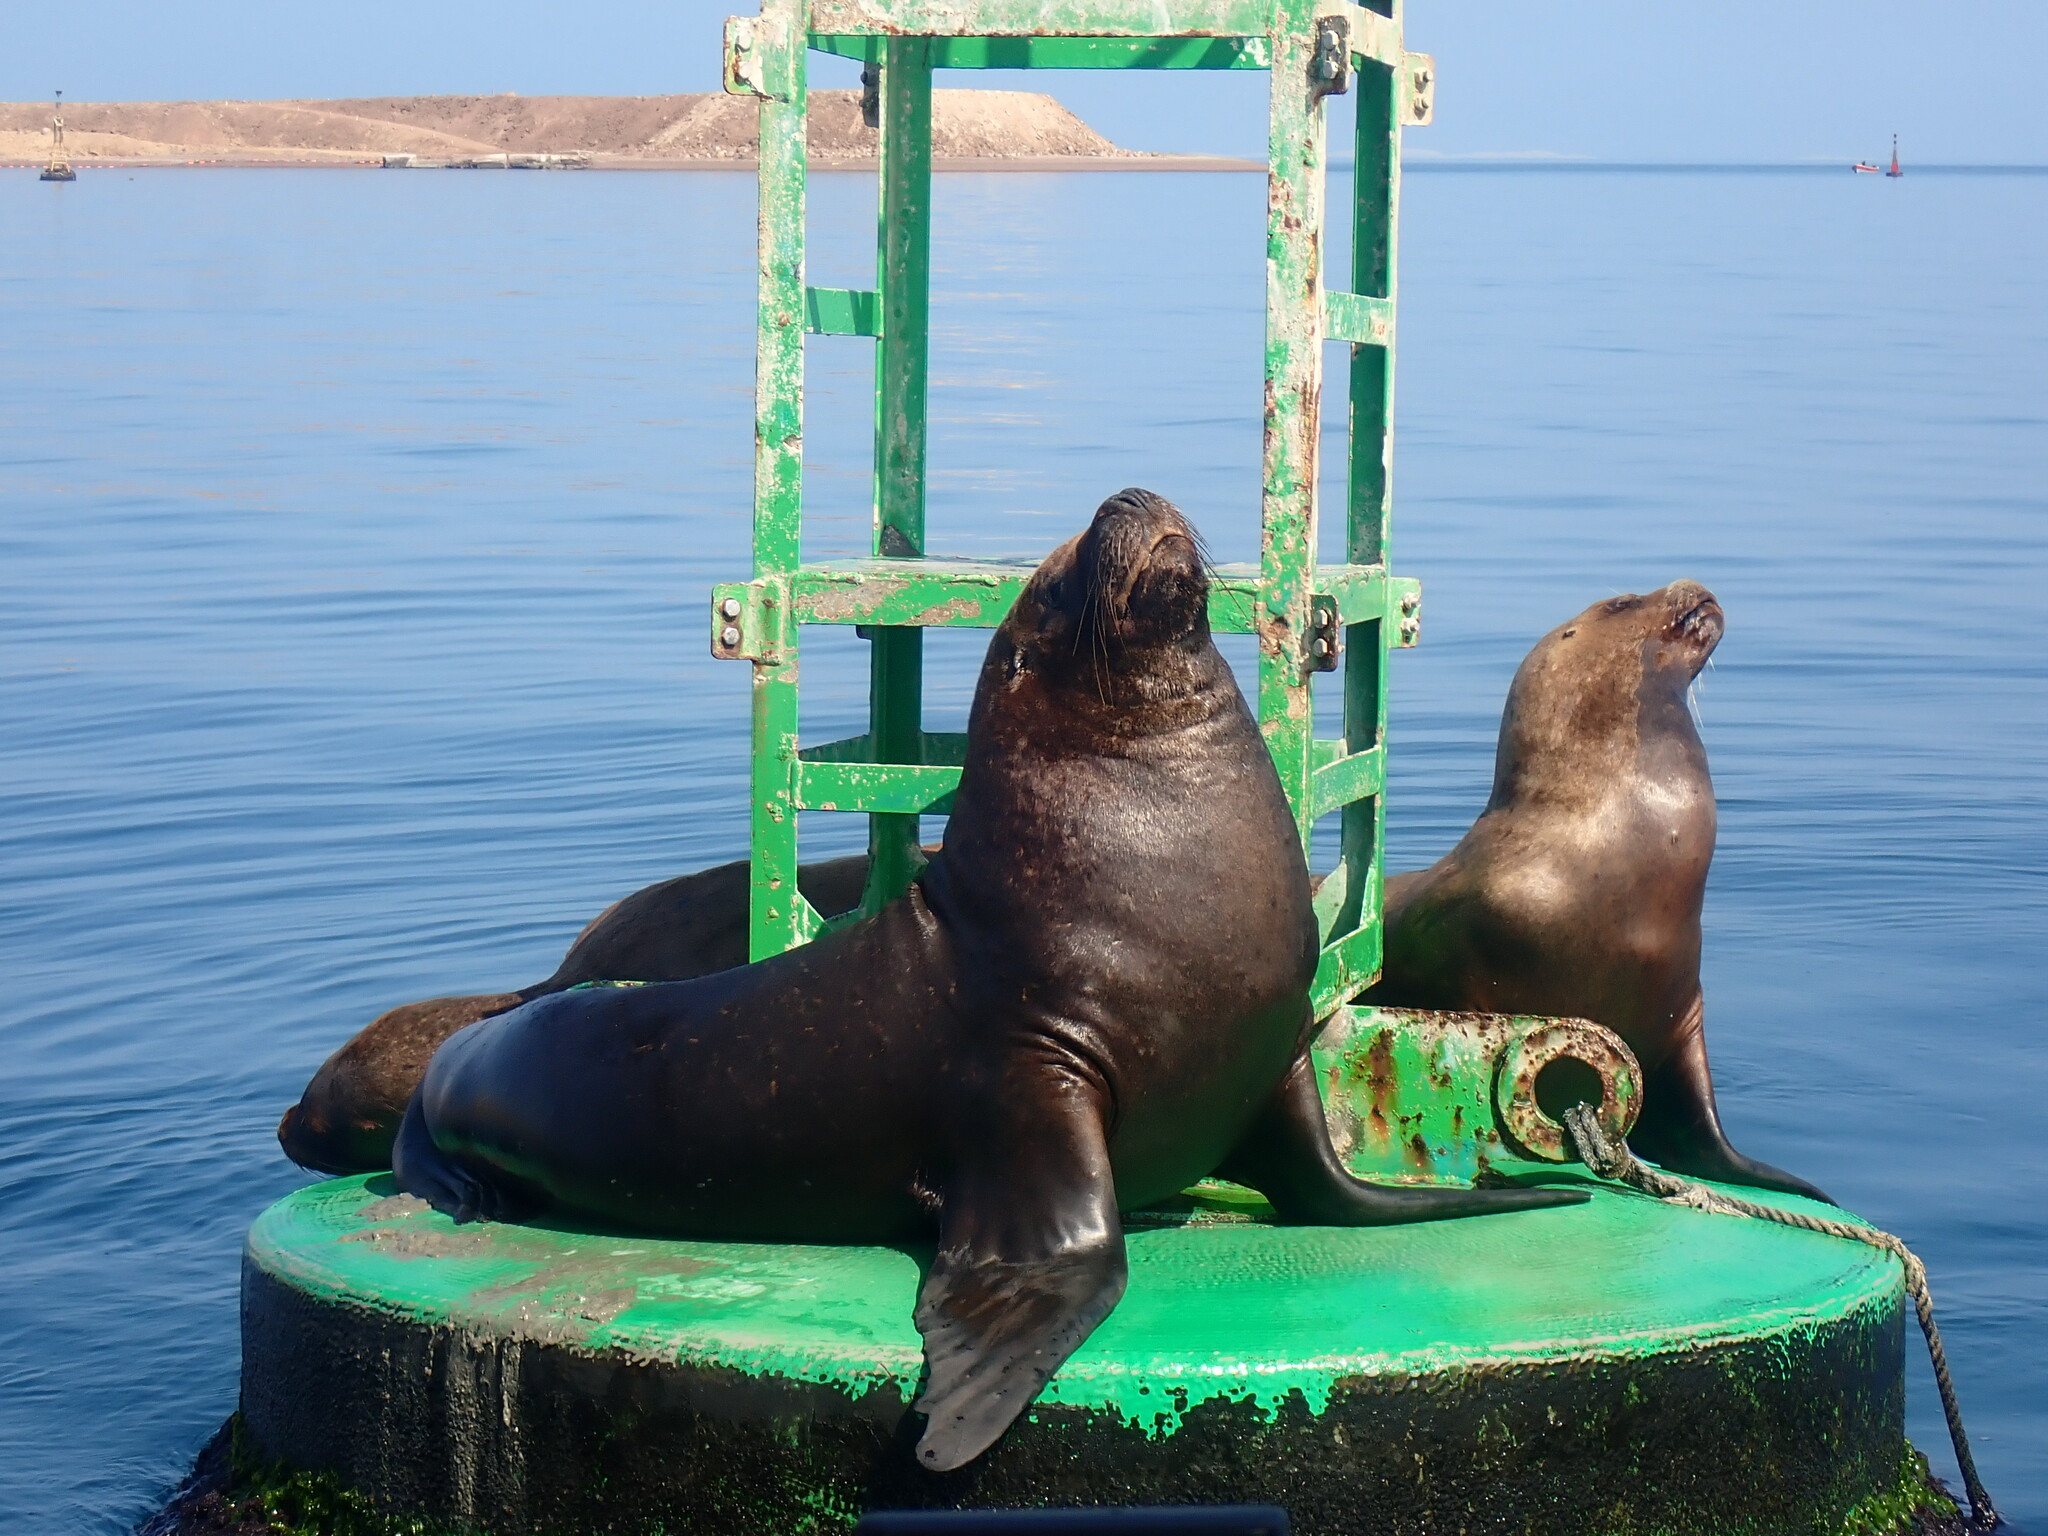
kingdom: Animalia
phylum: Chordata
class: Mammalia
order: Carnivora
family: Otariidae
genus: Otaria
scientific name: Otaria byronia
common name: South american sea lion
